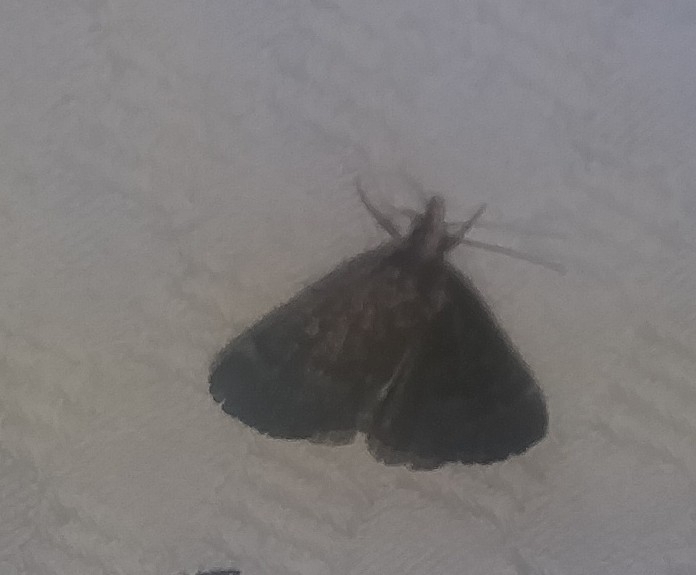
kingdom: Animalia
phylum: Arthropoda
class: Insecta
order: Lepidoptera
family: Crambidae
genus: Pyrausta
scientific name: Pyrausta merrickalis
